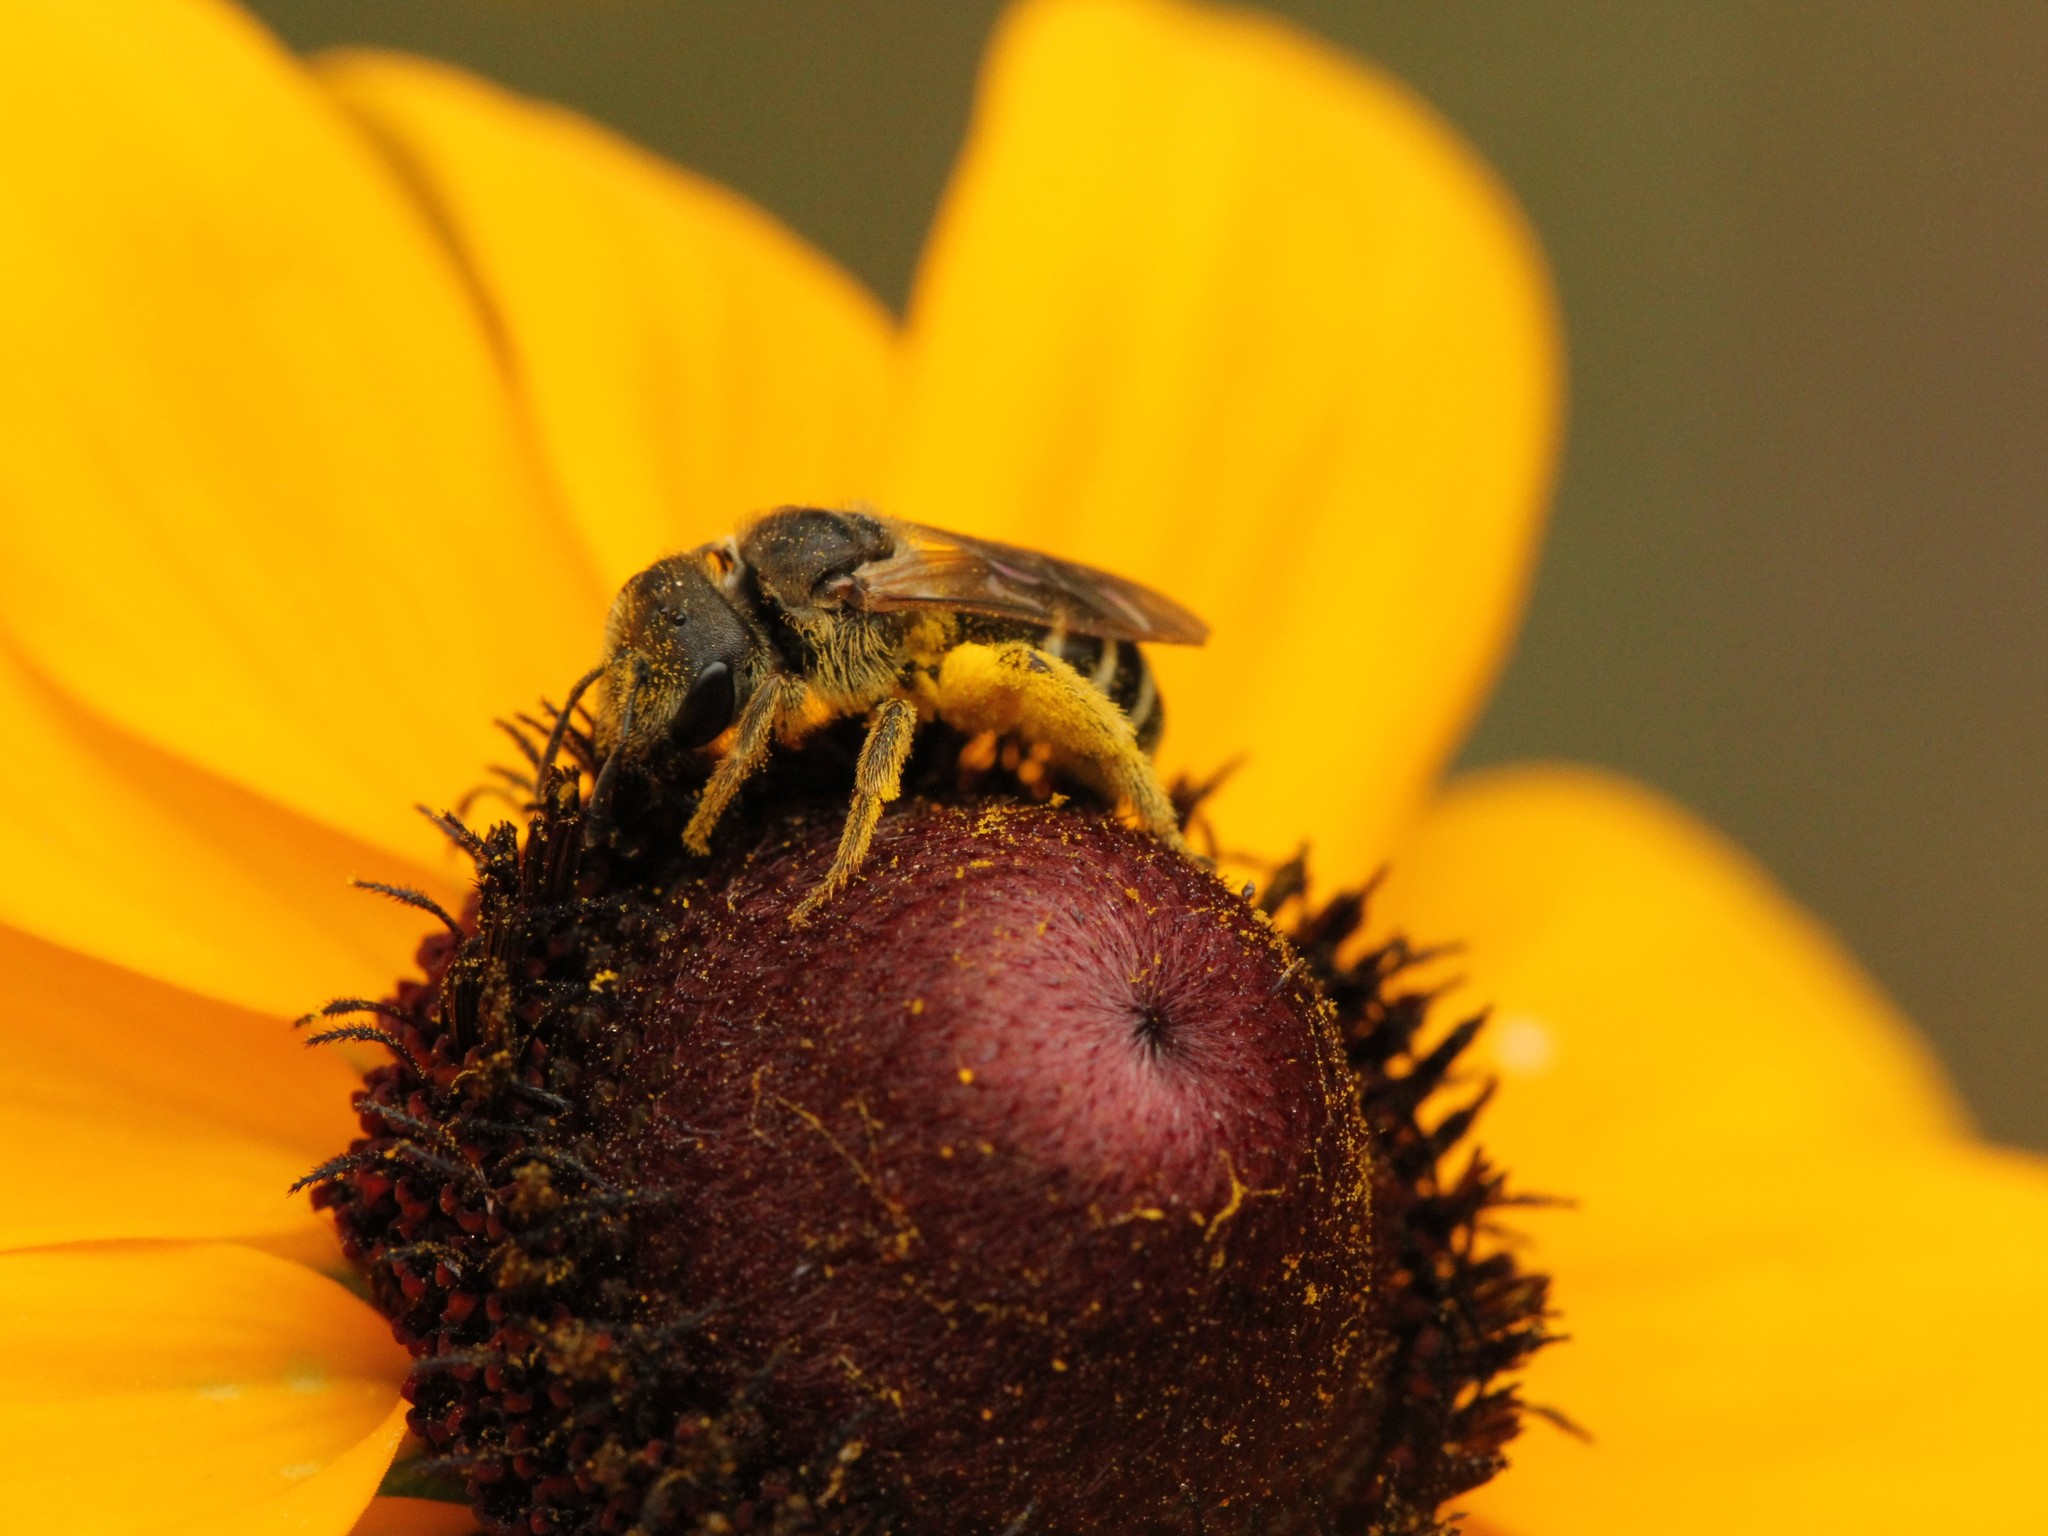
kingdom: Animalia
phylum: Arthropoda
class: Insecta
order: Hymenoptera
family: Halictidae
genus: Halictus
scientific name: Halictus ligatus
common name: Ligated furrow bee
